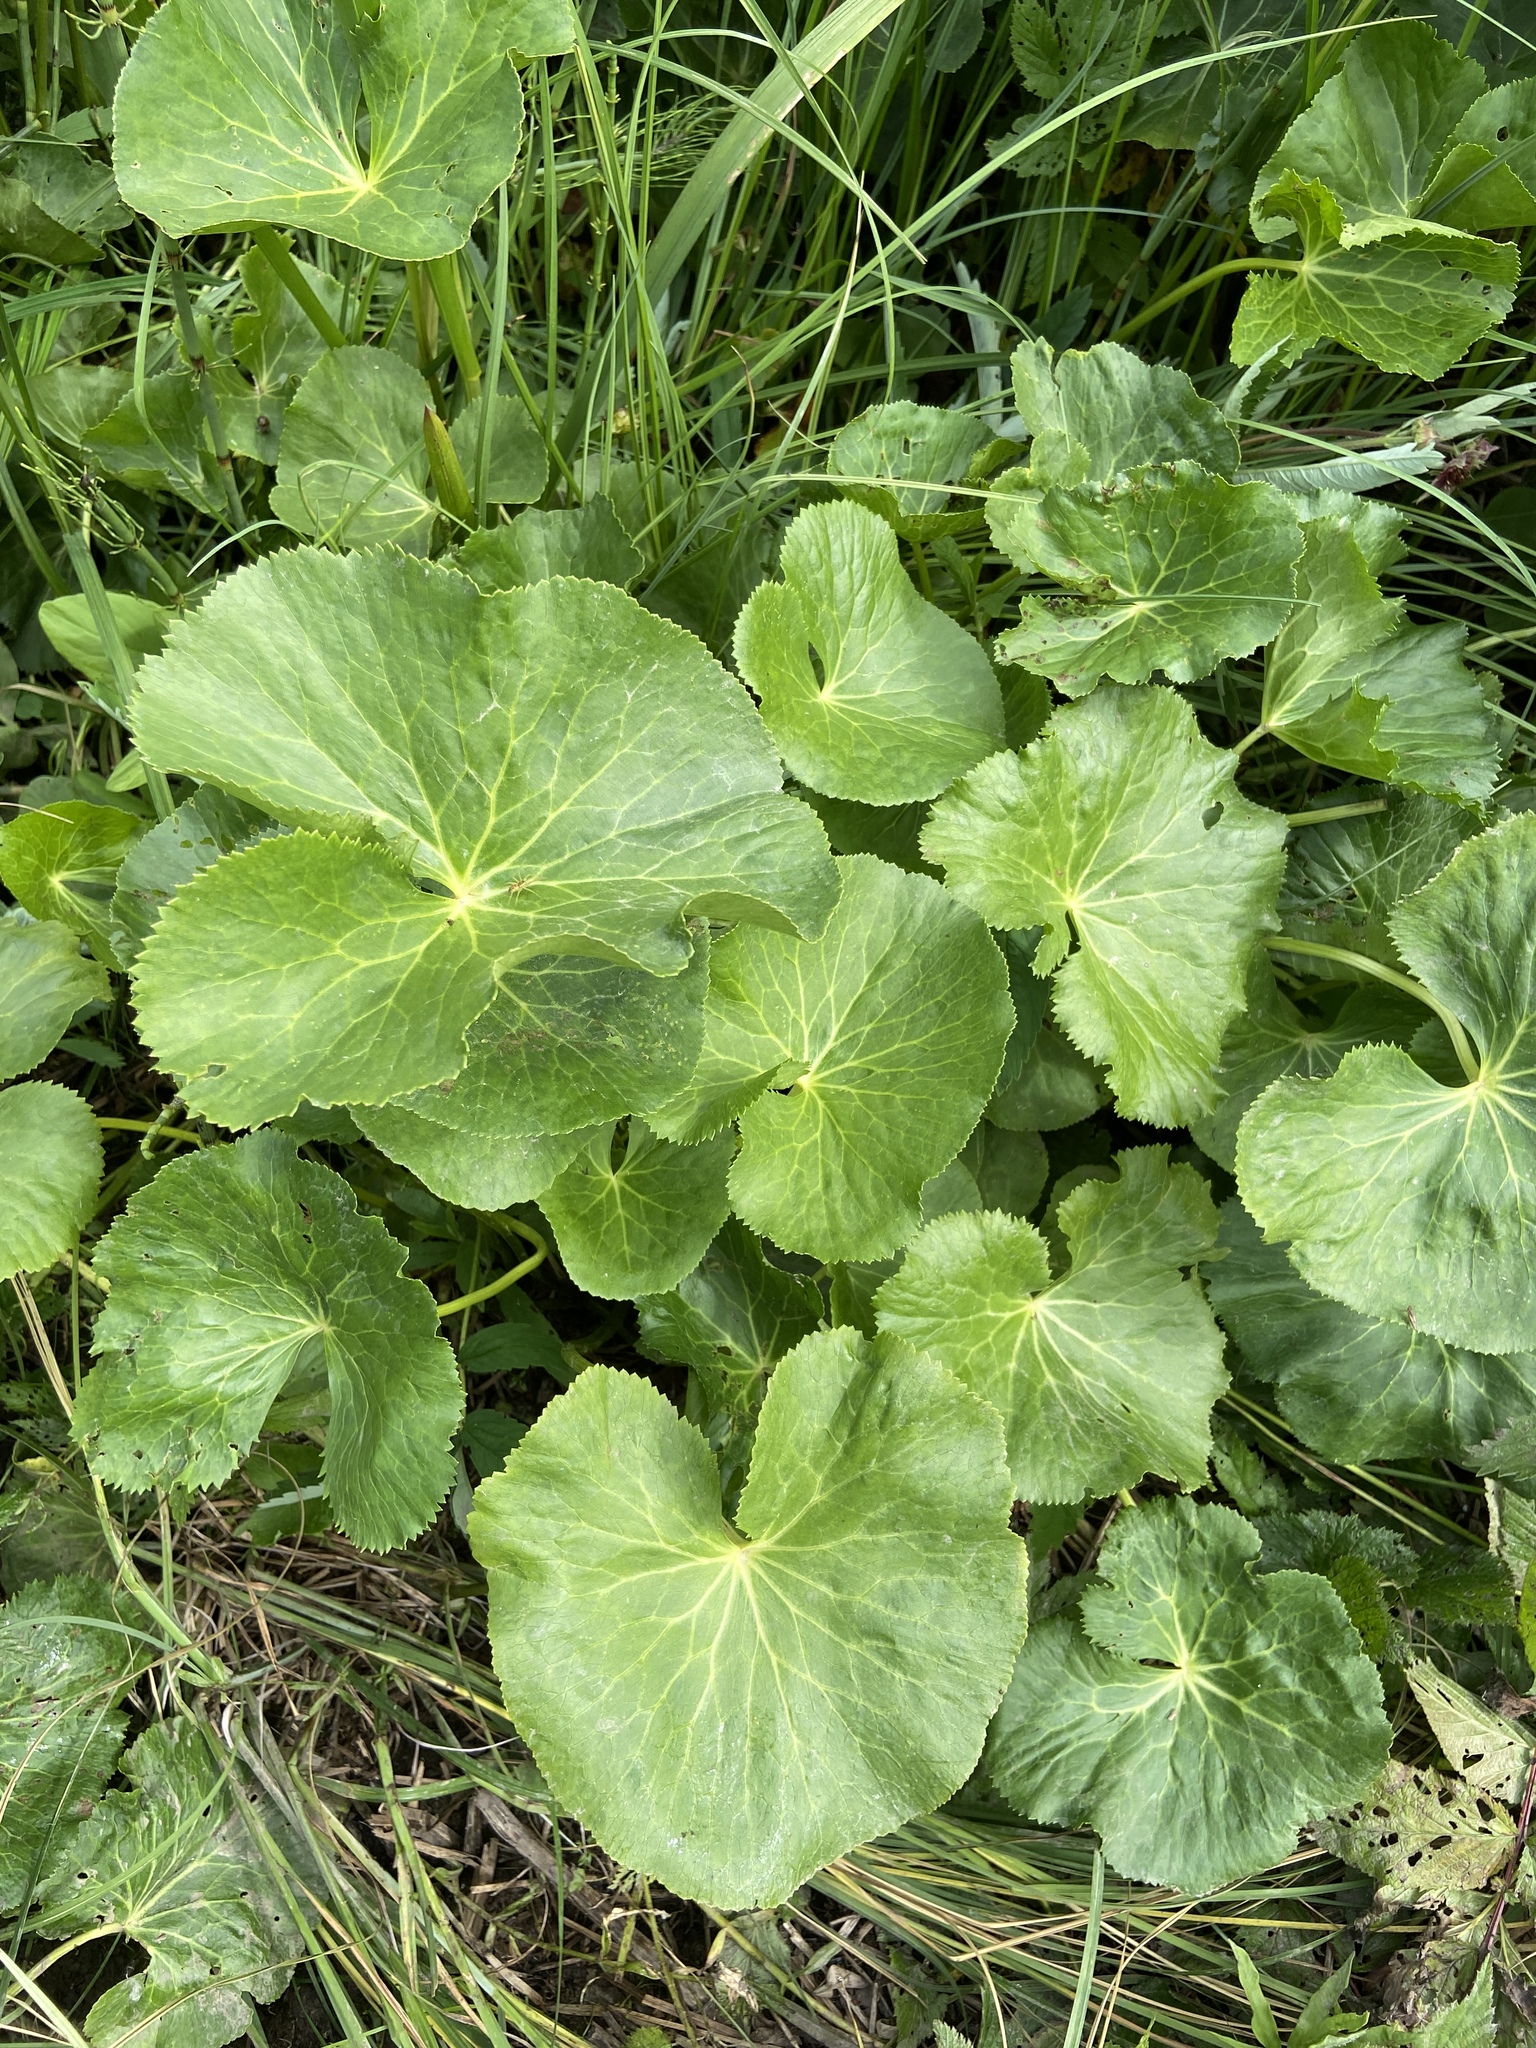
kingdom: Plantae
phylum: Tracheophyta
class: Magnoliopsida
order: Ranunculales
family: Ranunculaceae
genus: Caltha
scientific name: Caltha palustris
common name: Marsh marigold
